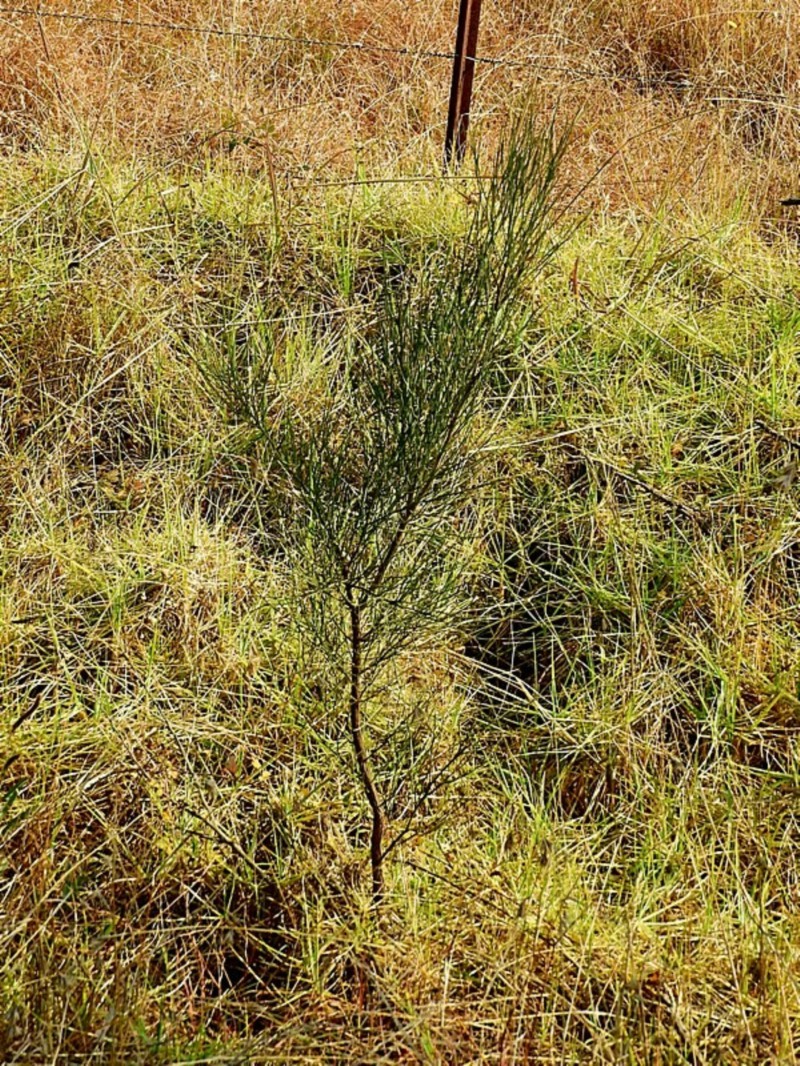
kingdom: Plantae
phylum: Tracheophyta
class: Magnoliopsida
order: Fabales
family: Fabaceae
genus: Jacksonia
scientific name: Jacksonia scoparia
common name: Dogwood
